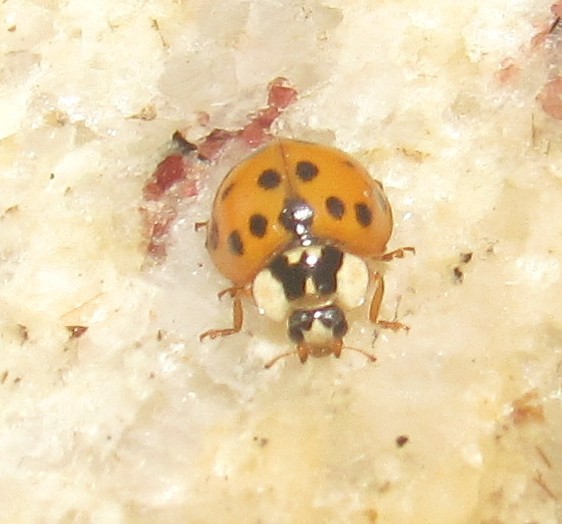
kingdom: Animalia
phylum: Arthropoda
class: Insecta
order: Coleoptera
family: Coccinellidae
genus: Harmonia
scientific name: Harmonia axyridis
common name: Harlequin ladybird
